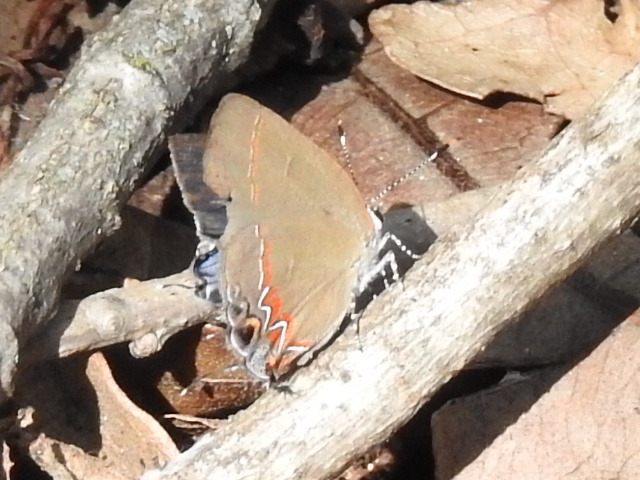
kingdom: Animalia
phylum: Arthropoda
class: Insecta
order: Lepidoptera
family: Lycaenidae
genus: Calycopis
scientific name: Calycopis cecrops
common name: Red-banded hairstreak
